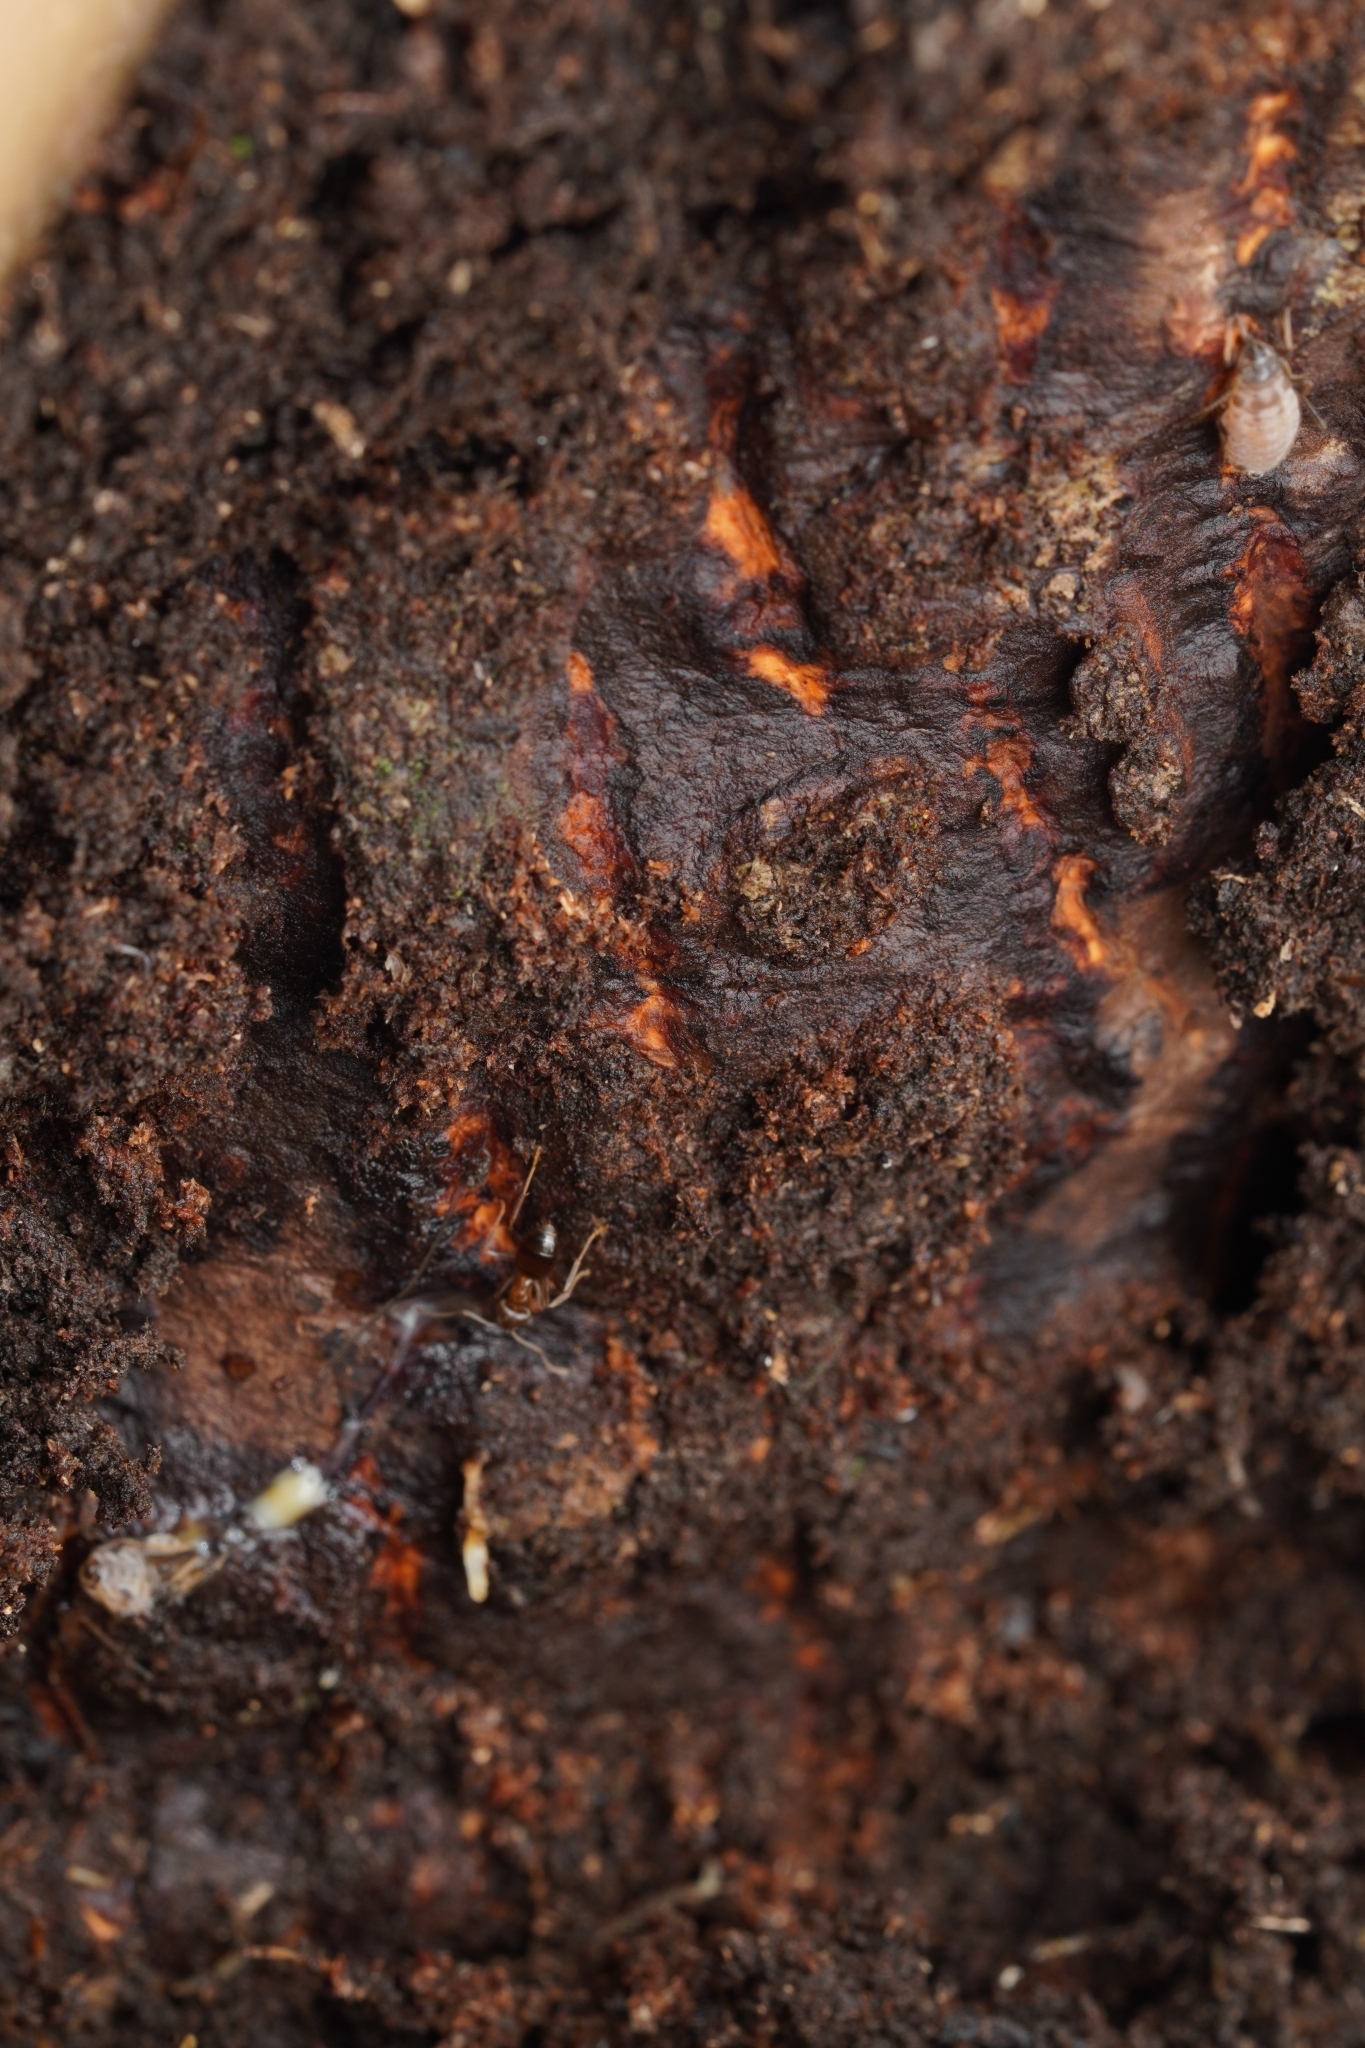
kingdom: Animalia
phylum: Arthropoda
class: Insecta
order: Hymenoptera
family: Formicidae
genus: Lasius
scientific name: Lasius hayashi
